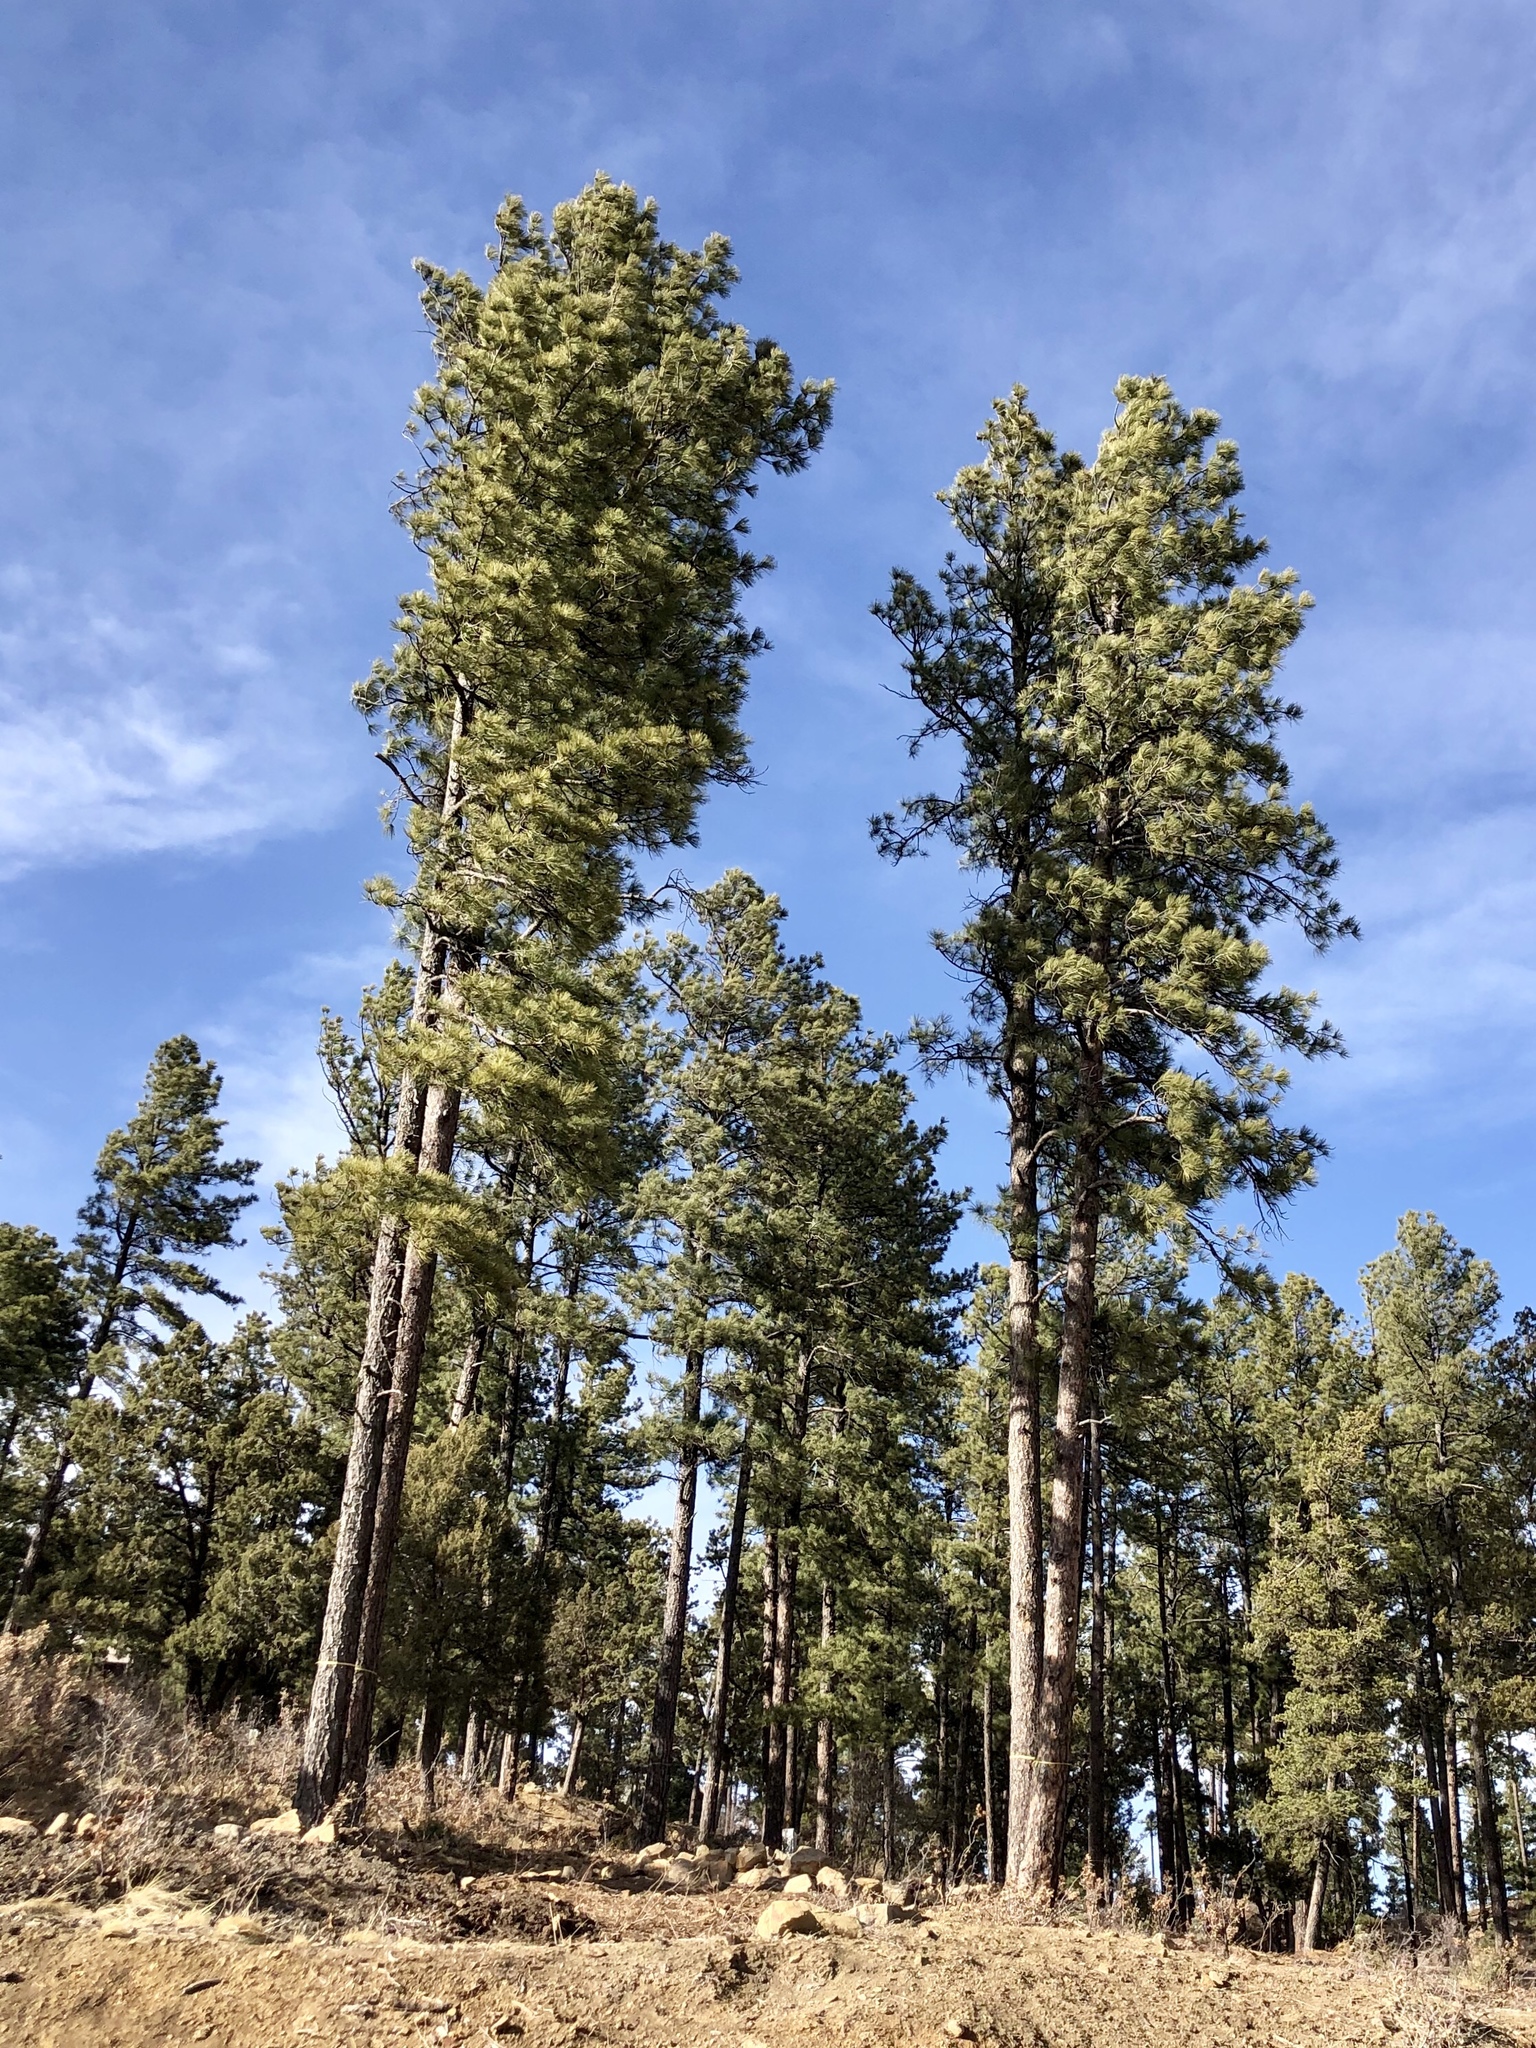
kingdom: Plantae
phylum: Tracheophyta
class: Pinopsida
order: Pinales
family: Pinaceae
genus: Pinus
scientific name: Pinus ponderosa
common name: Western yellow-pine
